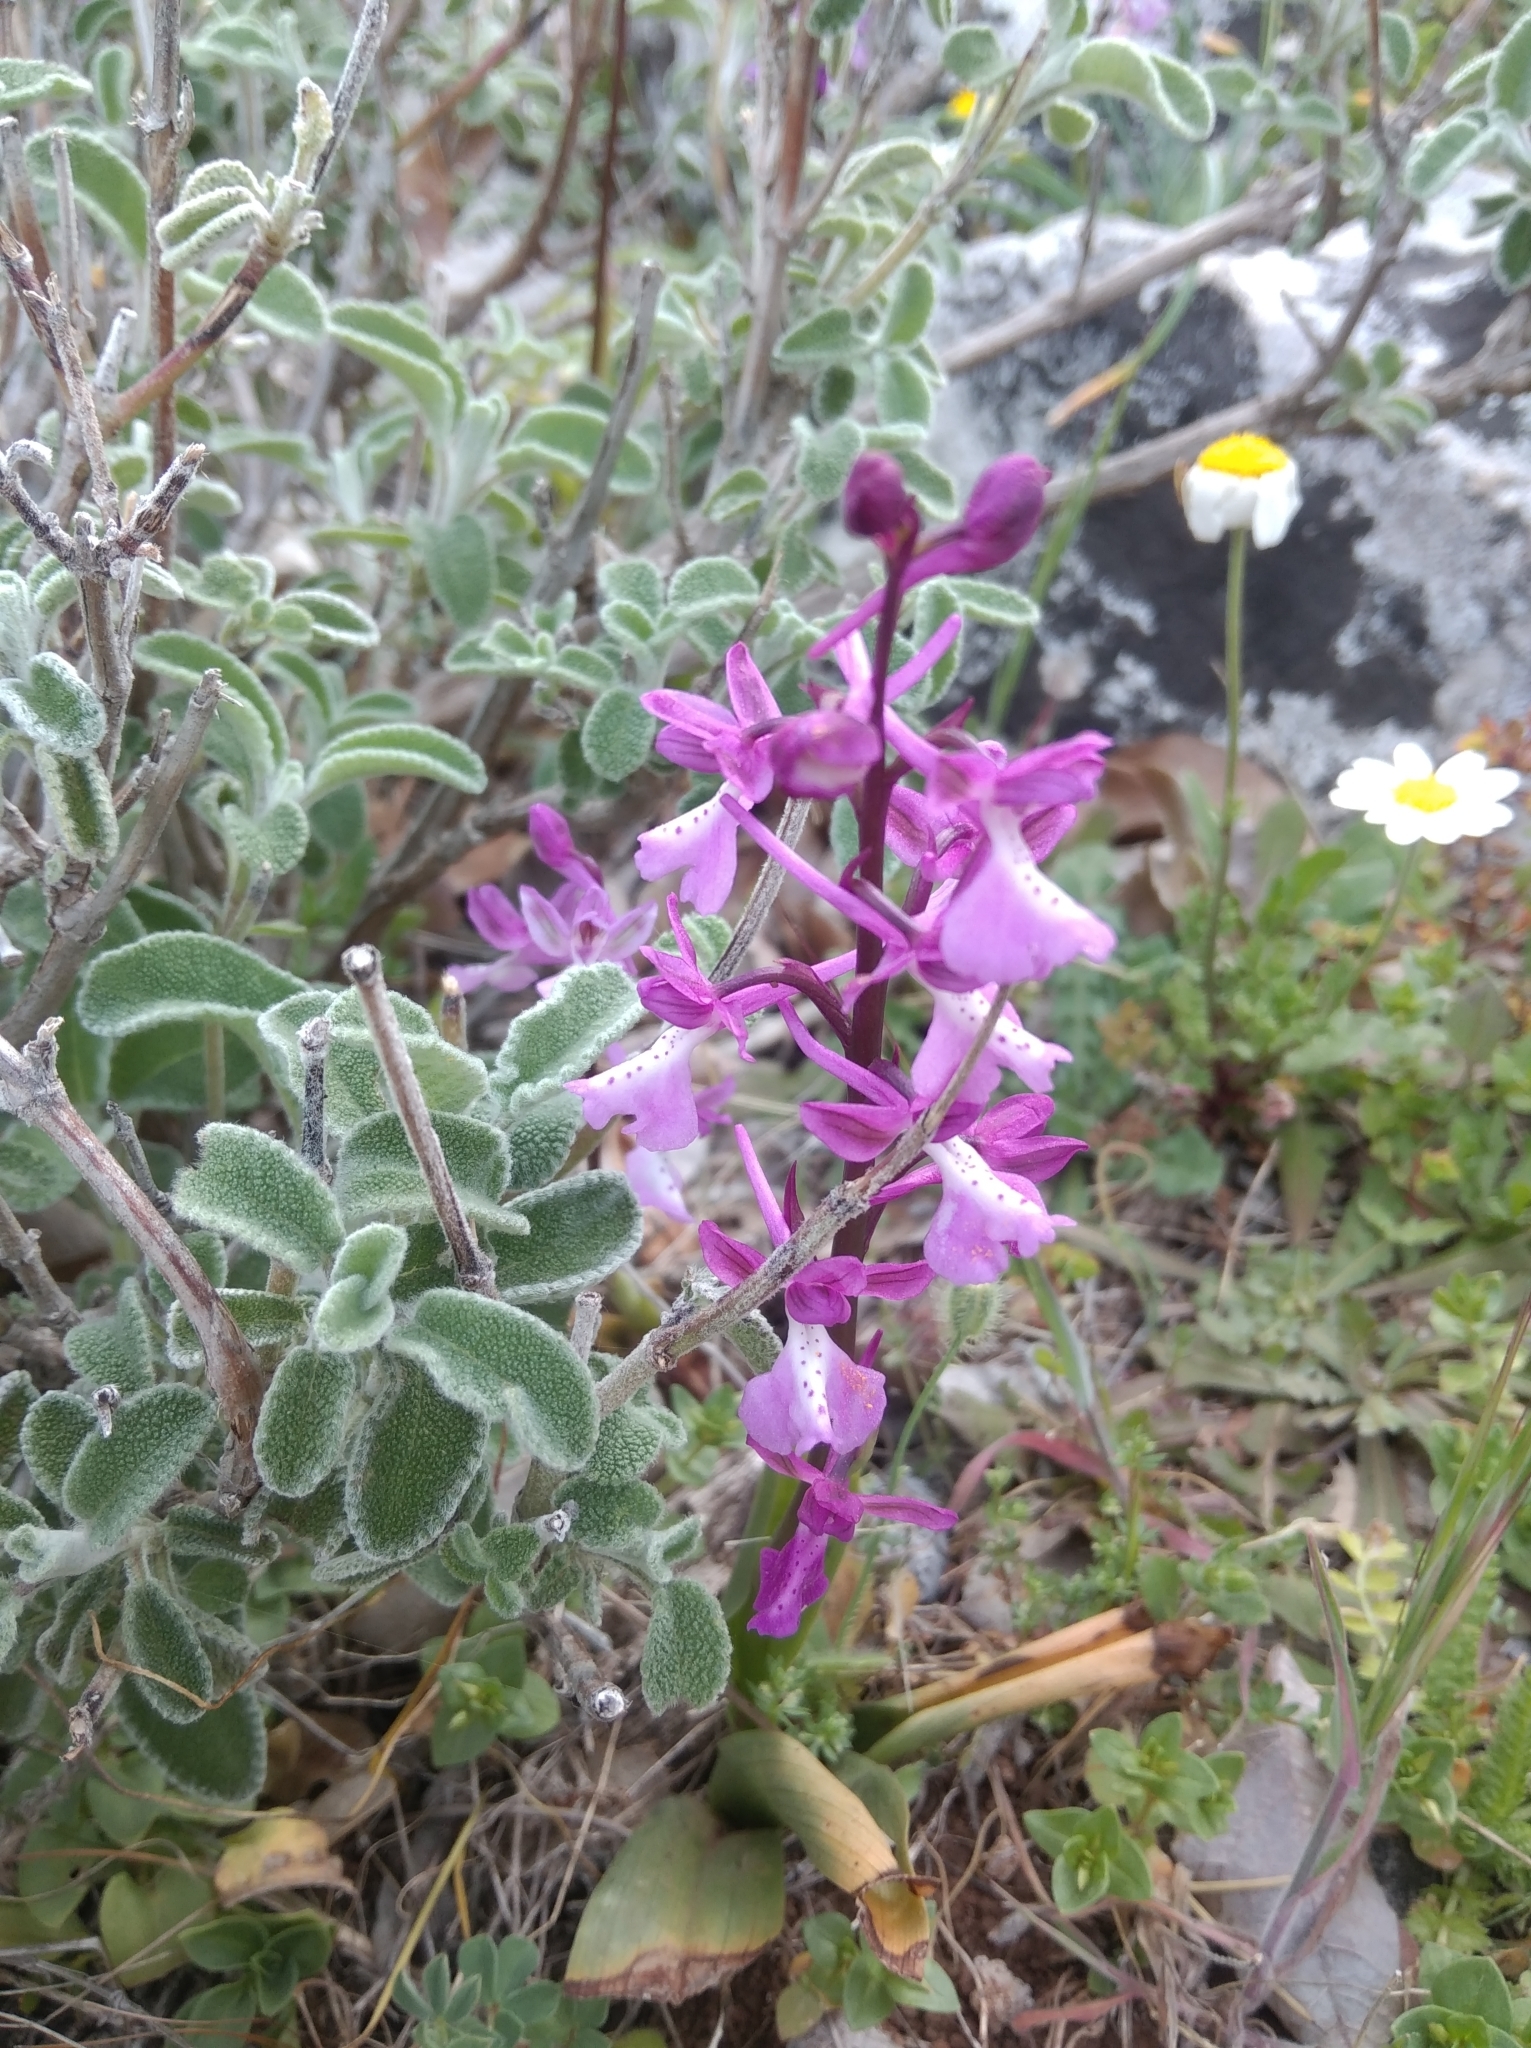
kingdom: Plantae
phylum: Tracheophyta
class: Liliopsida
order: Asparagales
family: Orchidaceae
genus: Orchis
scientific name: Orchis anatolica
